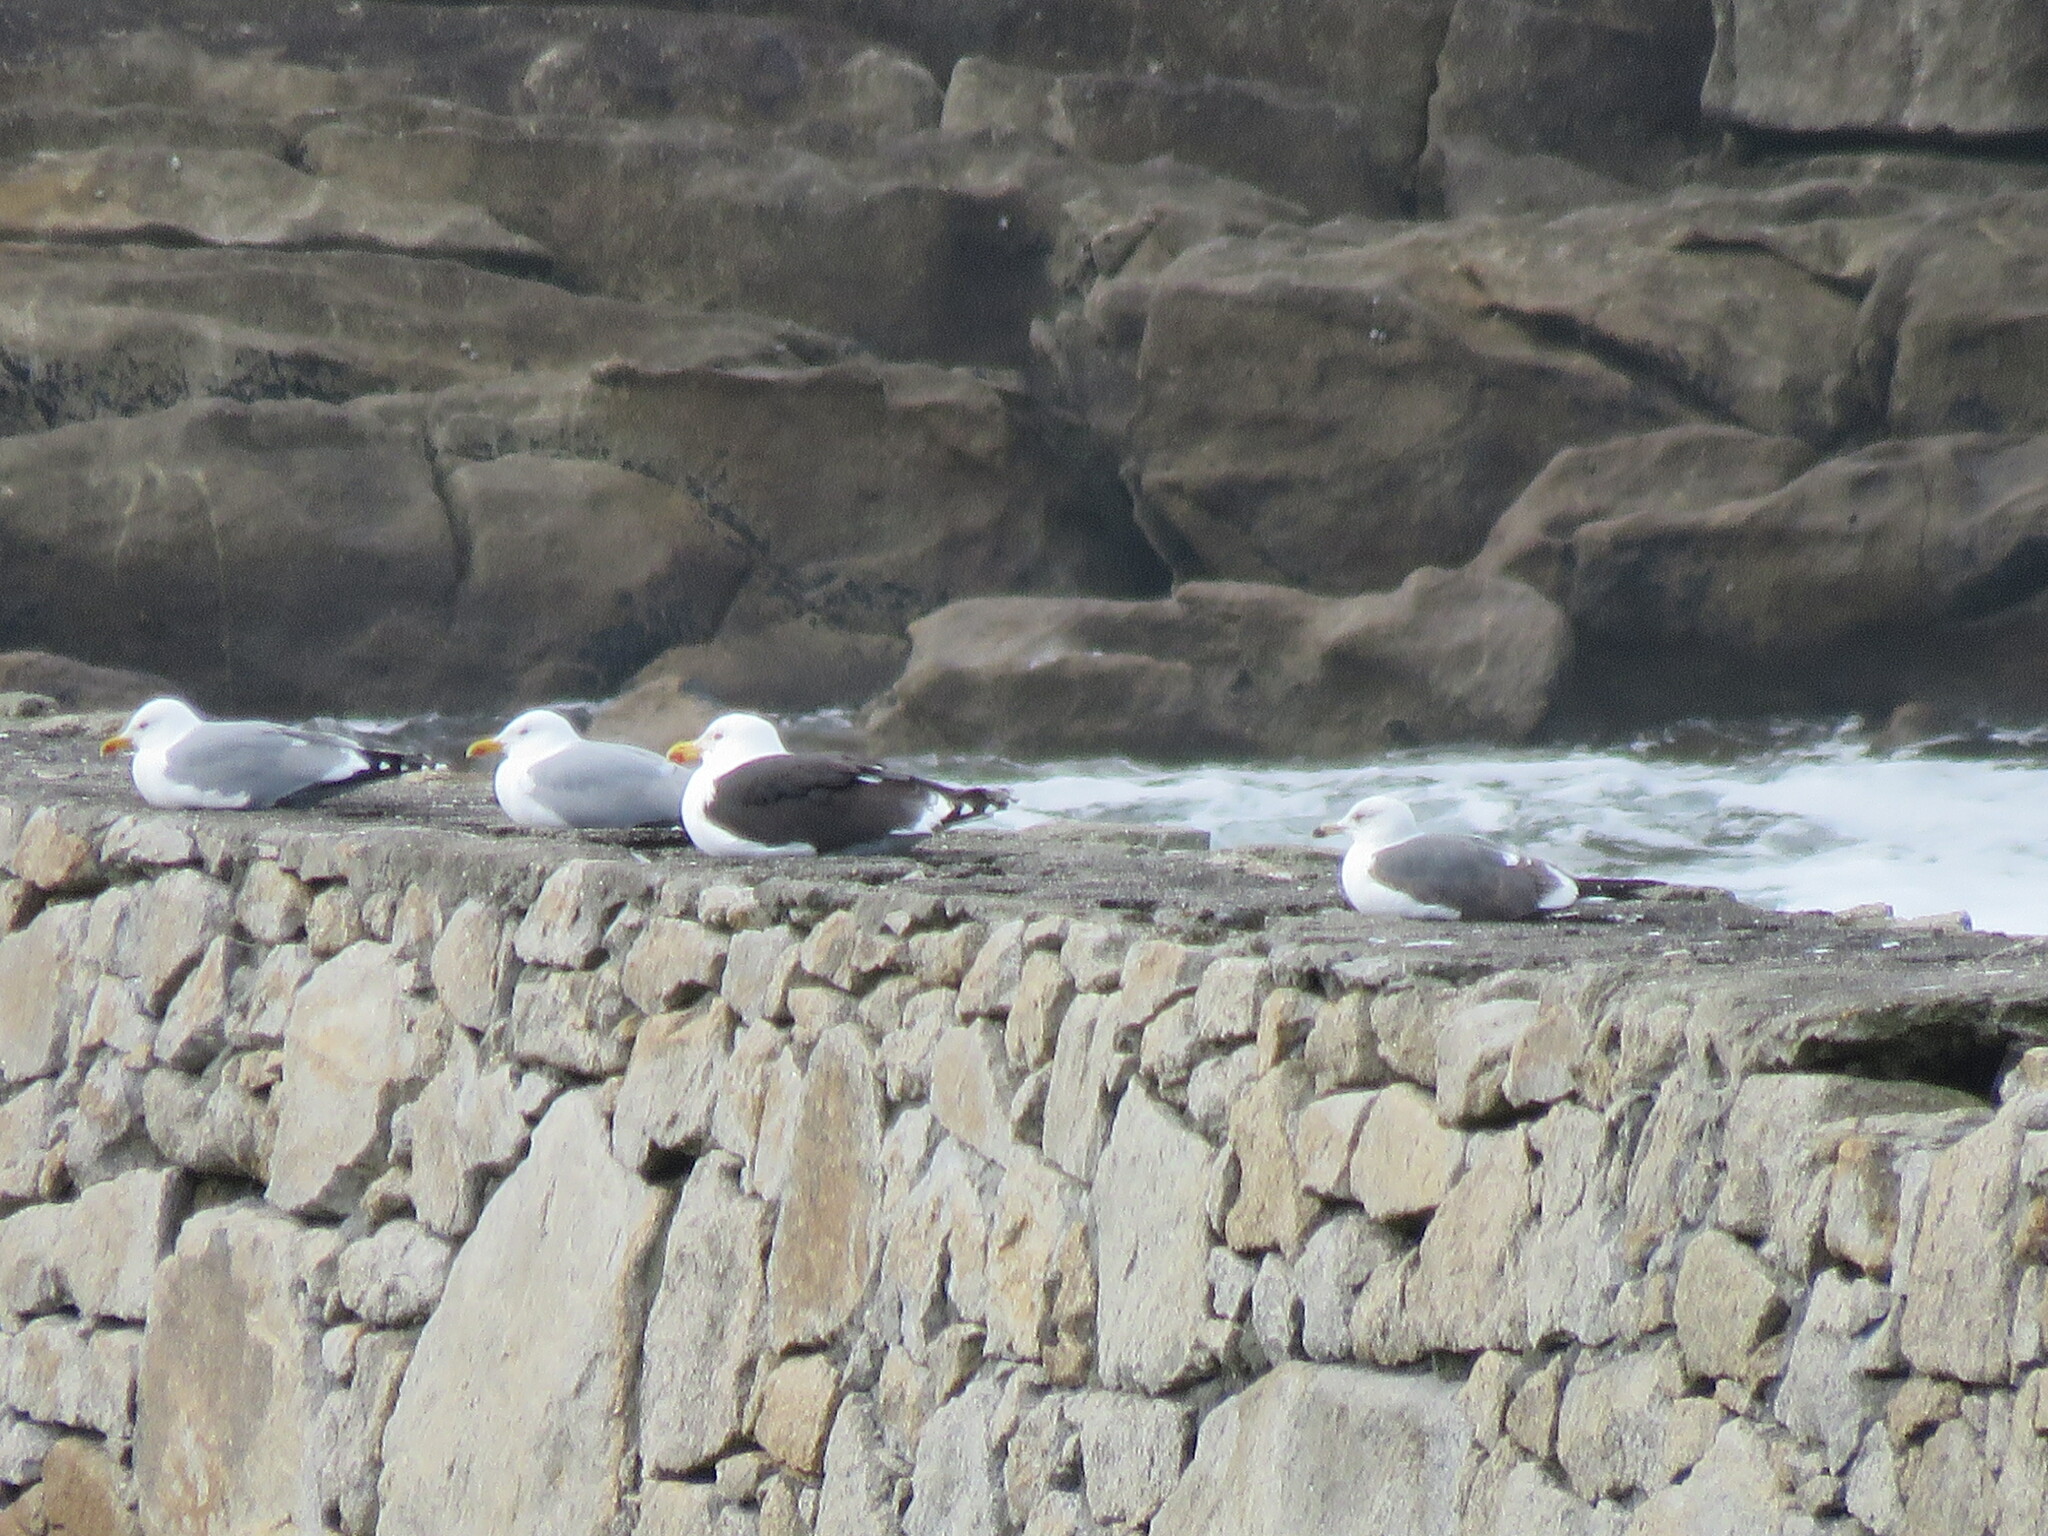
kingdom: Animalia
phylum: Chordata
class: Aves
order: Charadriiformes
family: Laridae
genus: Larus
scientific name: Larus marinus
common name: Great black-backed gull
